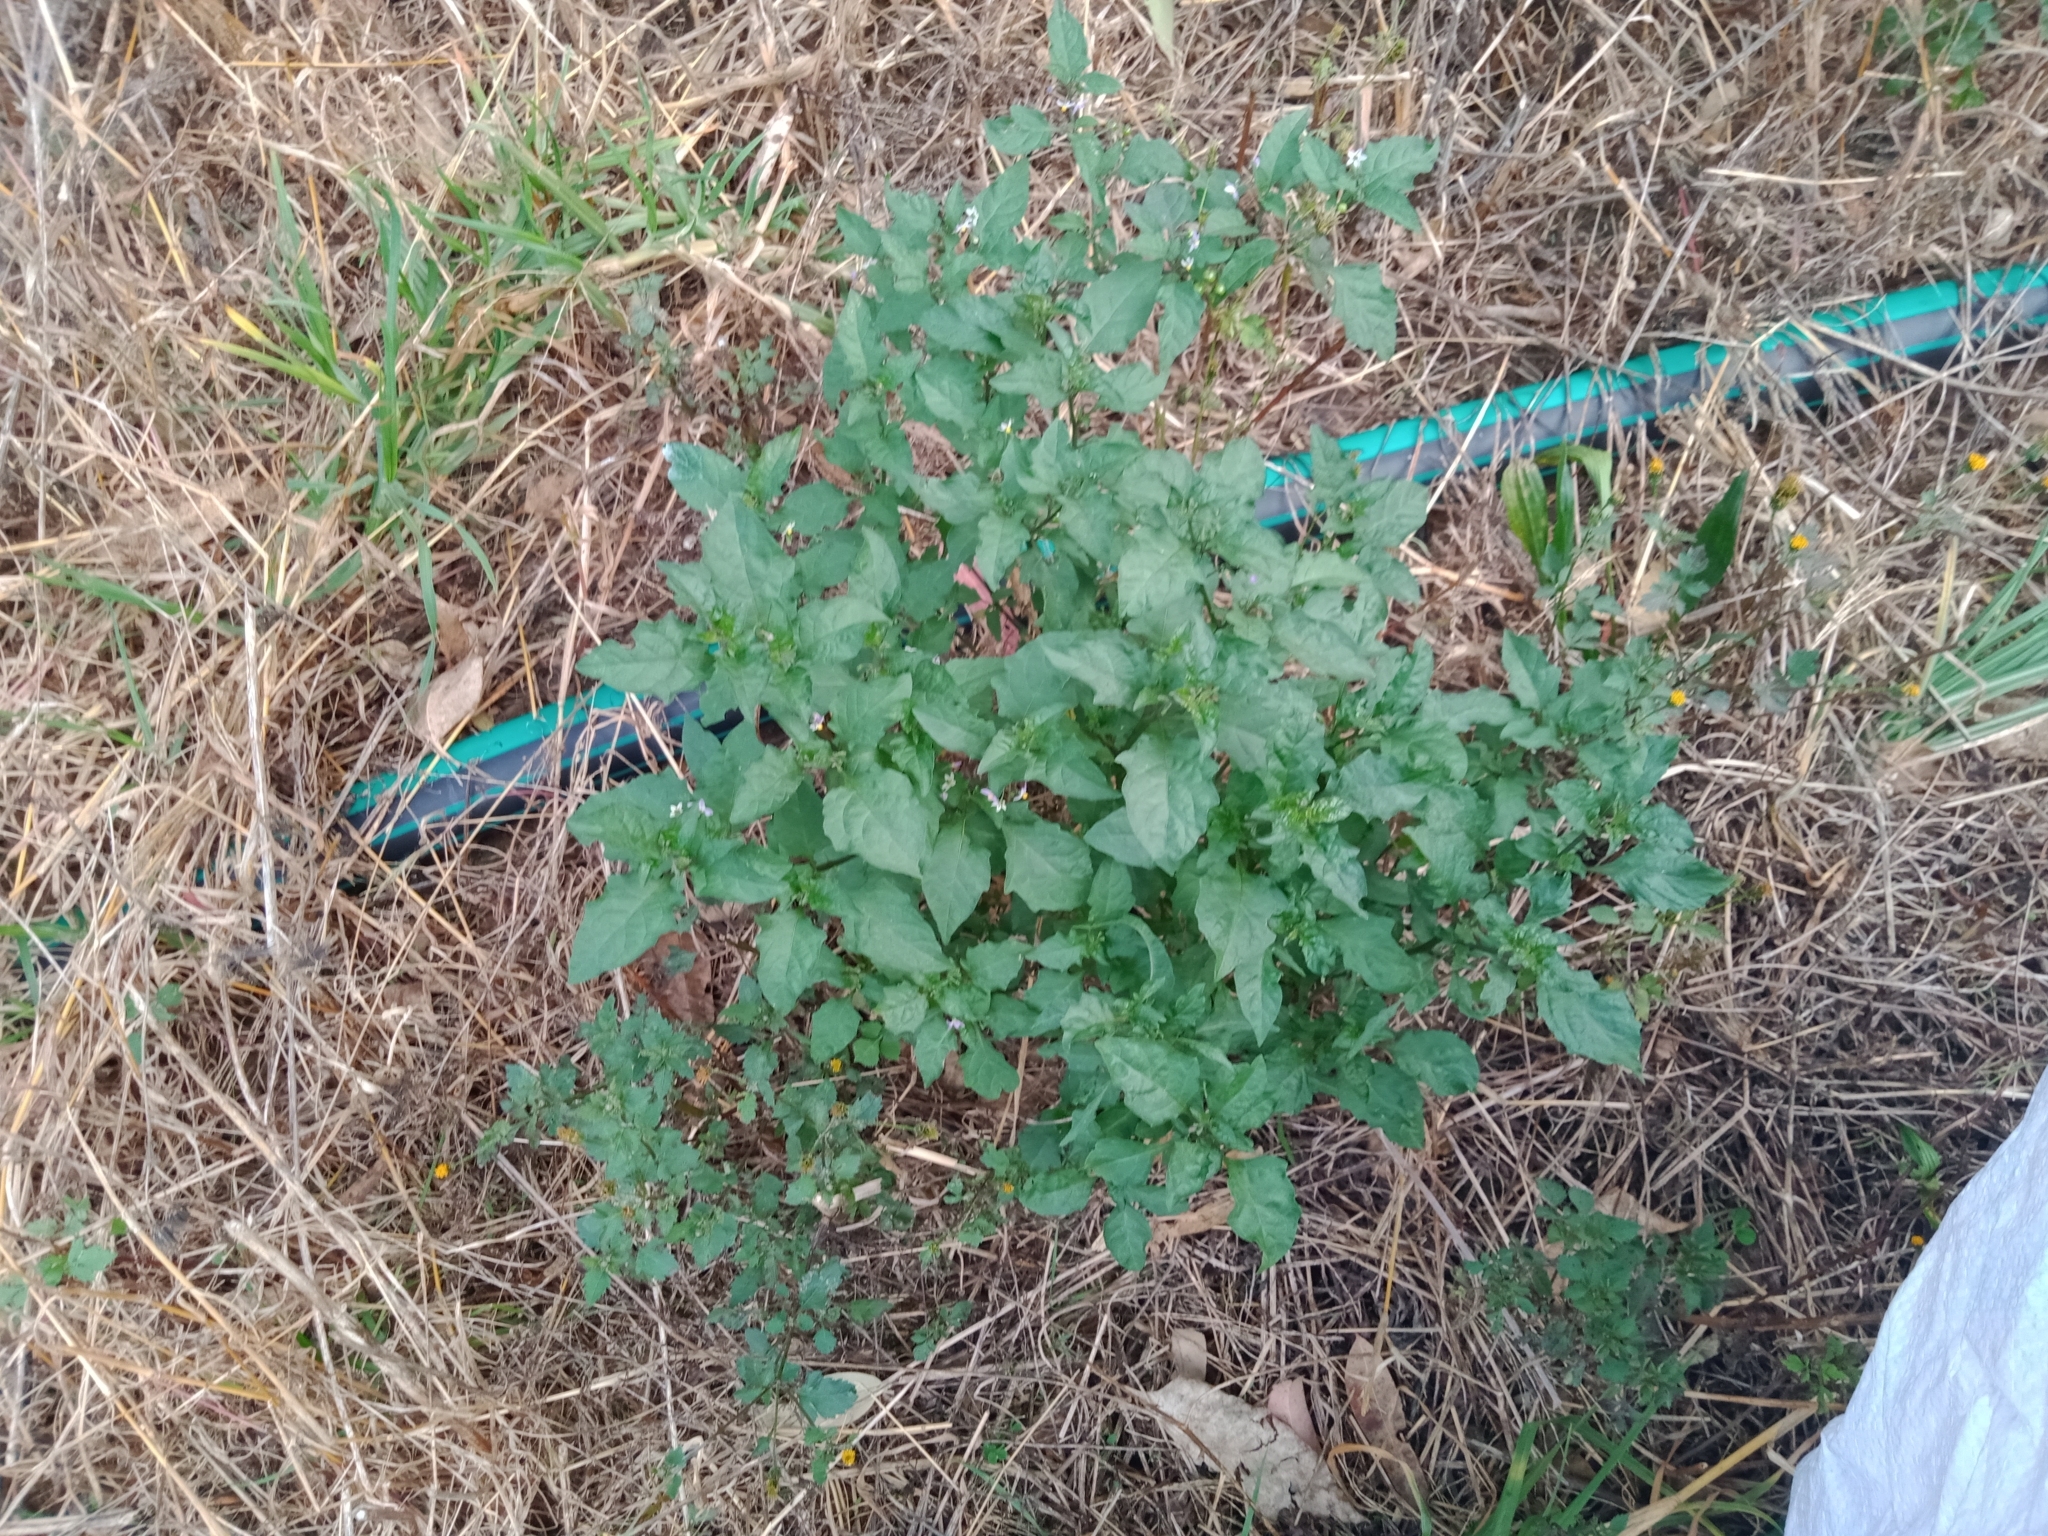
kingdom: Plantae
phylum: Tracheophyta
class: Magnoliopsida
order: Solanales
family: Solanaceae
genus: Solanum
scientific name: Solanum americanum
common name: American black nightshade
